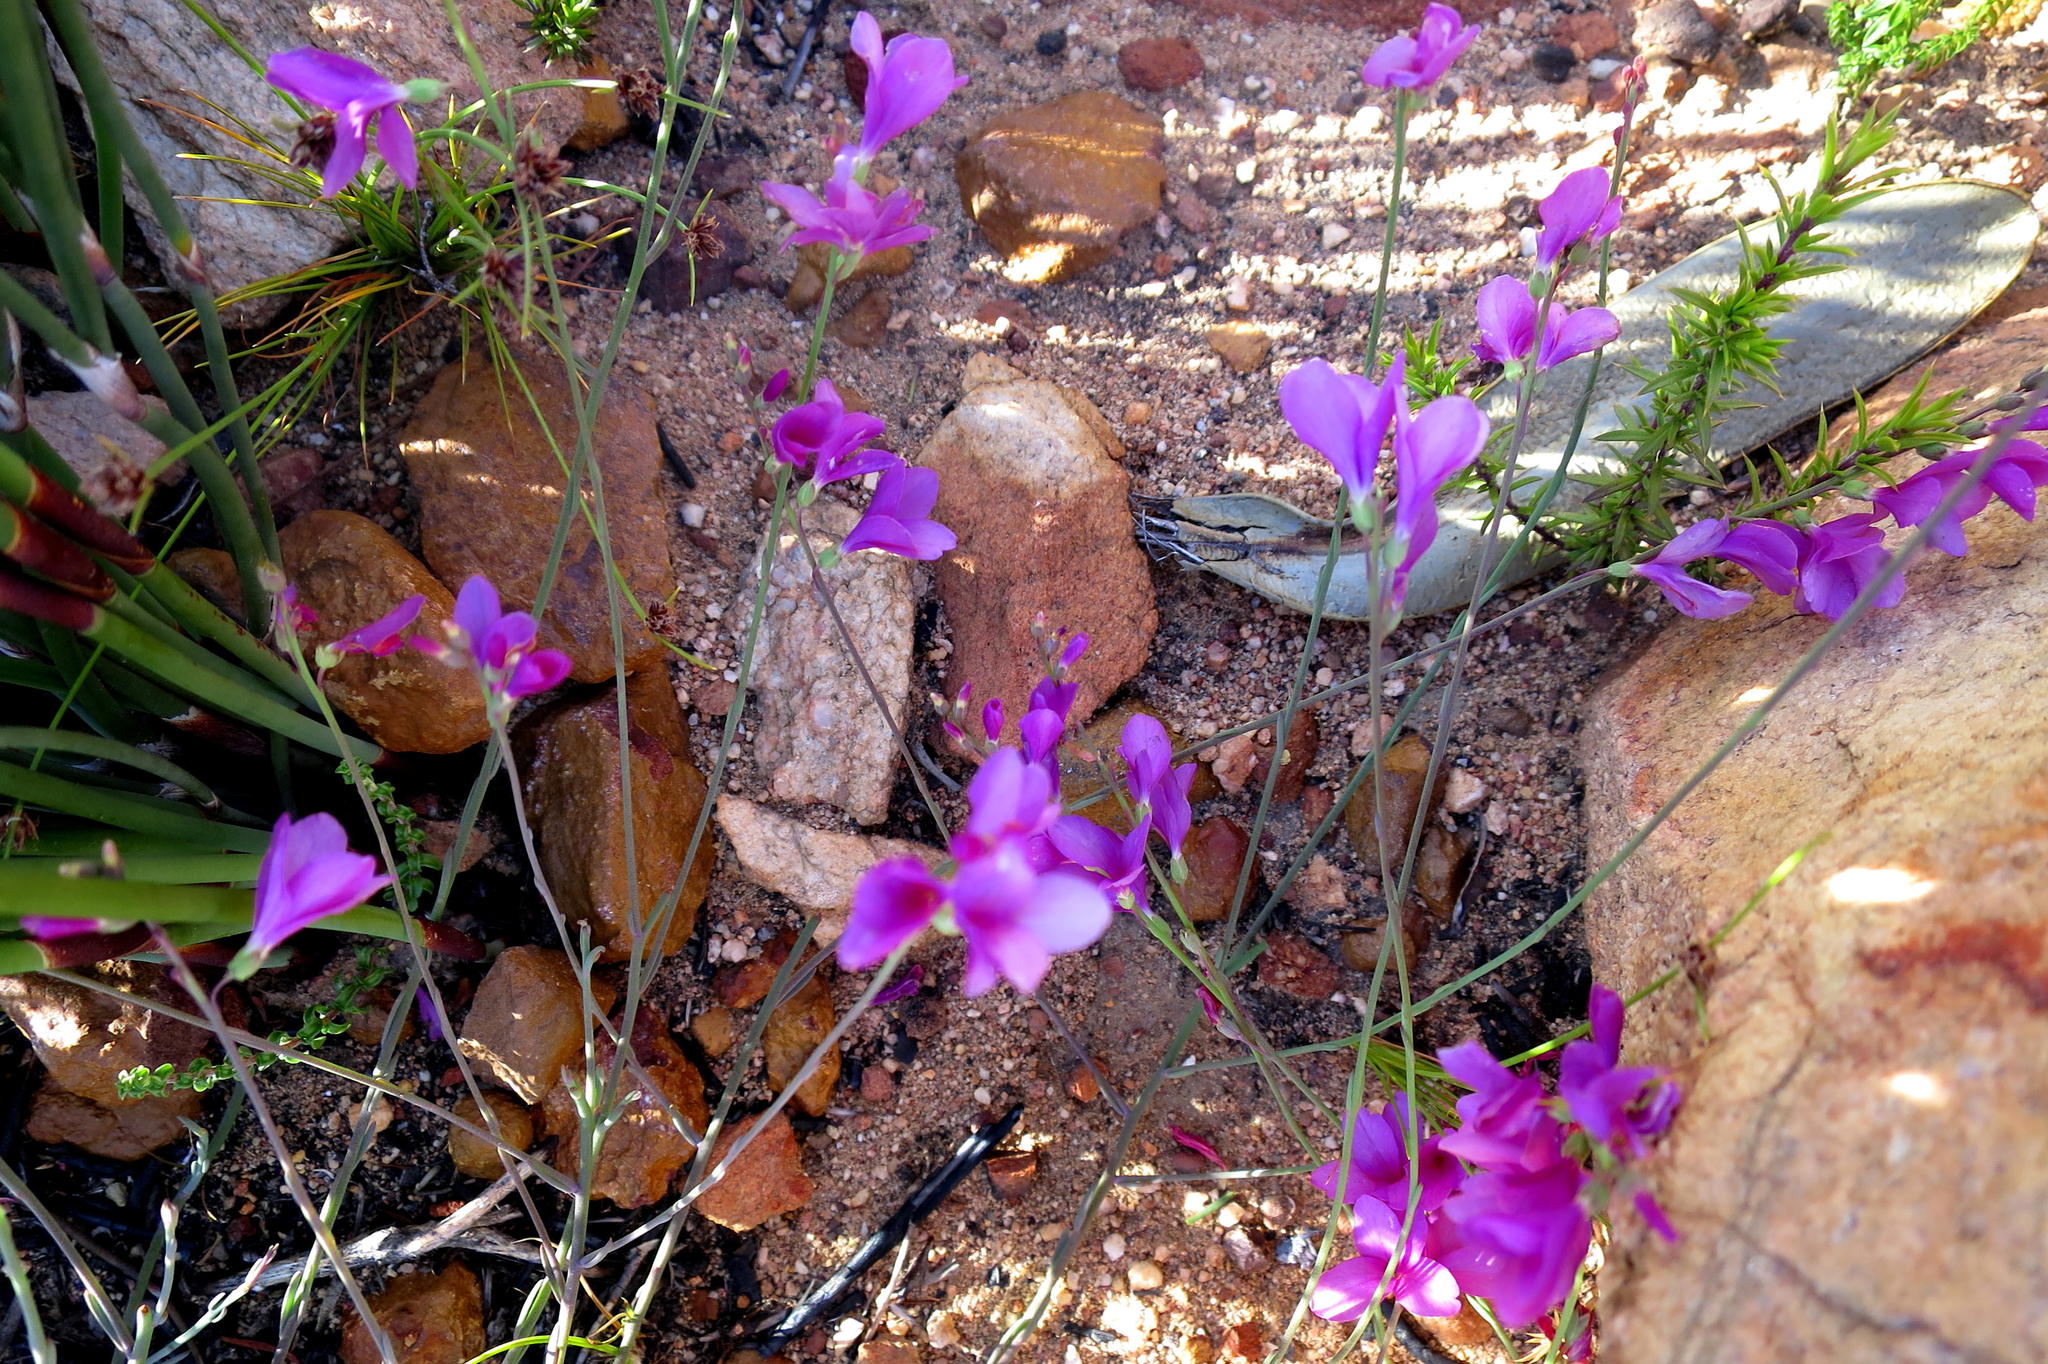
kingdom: Plantae
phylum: Tracheophyta
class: Magnoliopsida
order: Brassicales
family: Brassicaceae
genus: Heliophila
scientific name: Heliophila juncea
